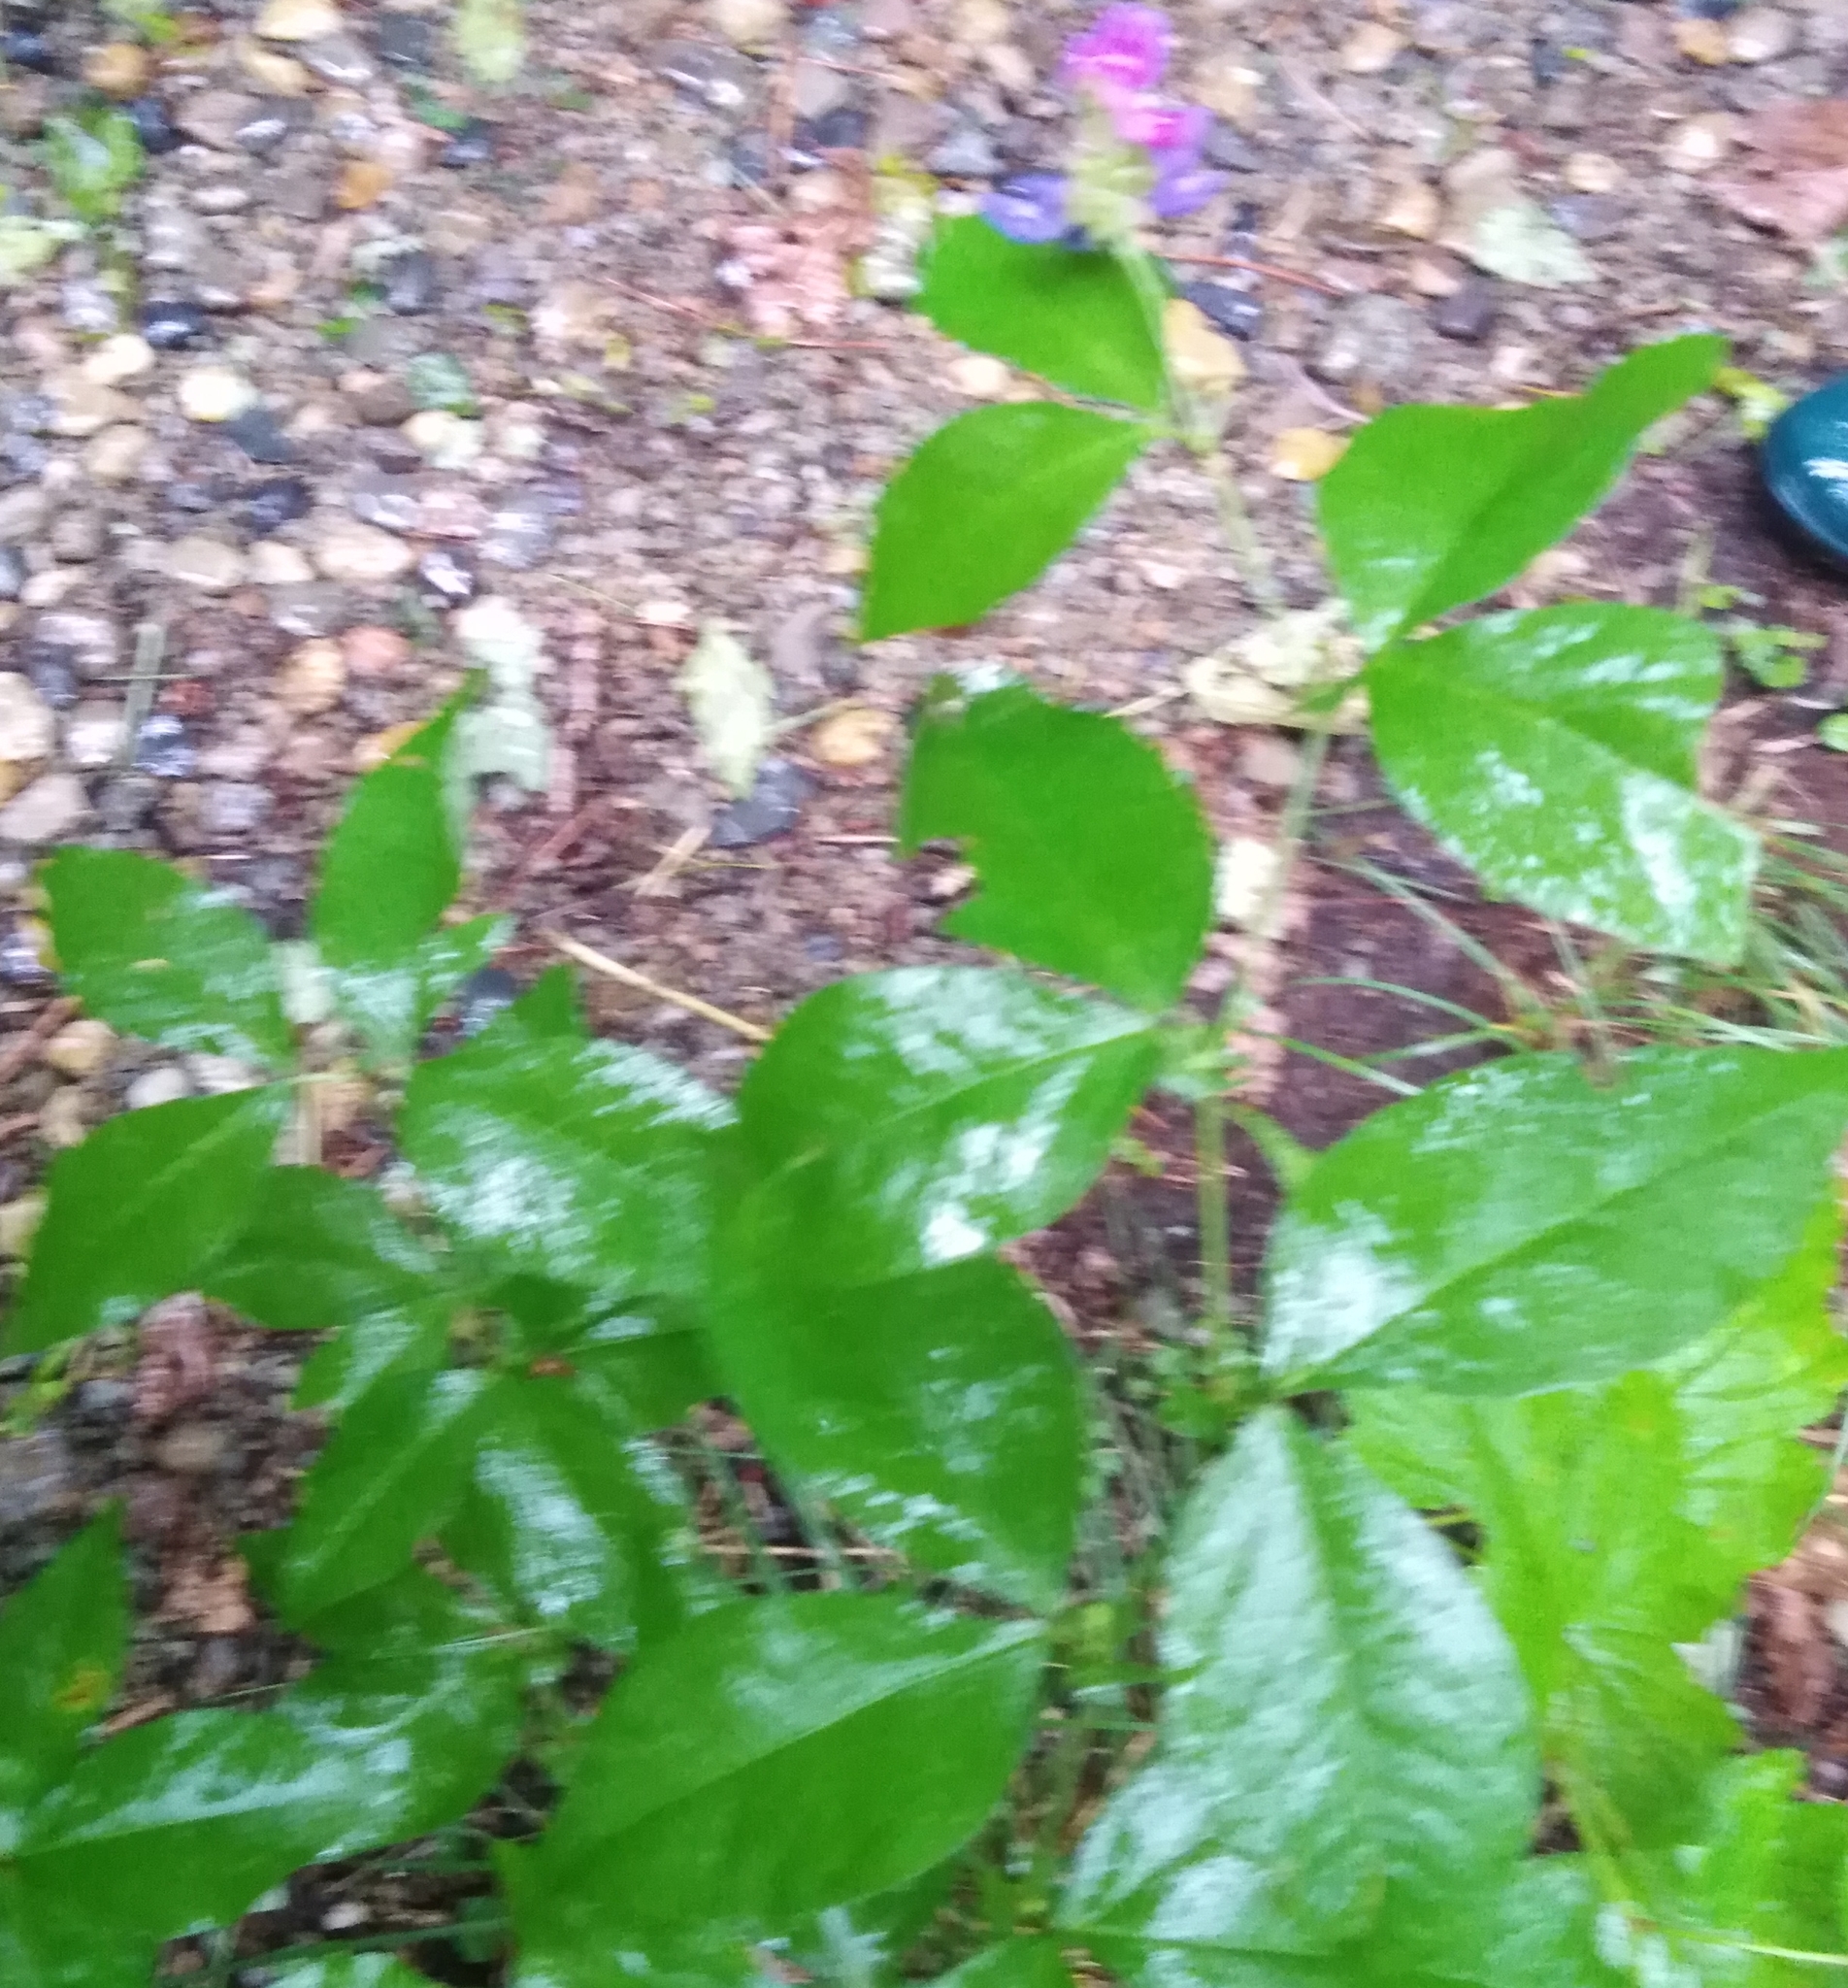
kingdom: Plantae
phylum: Tracheophyta
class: Magnoliopsida
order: Fabales
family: Fabaceae
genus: Vicia
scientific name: Vicia unijuga
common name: Two-leaf vetch
